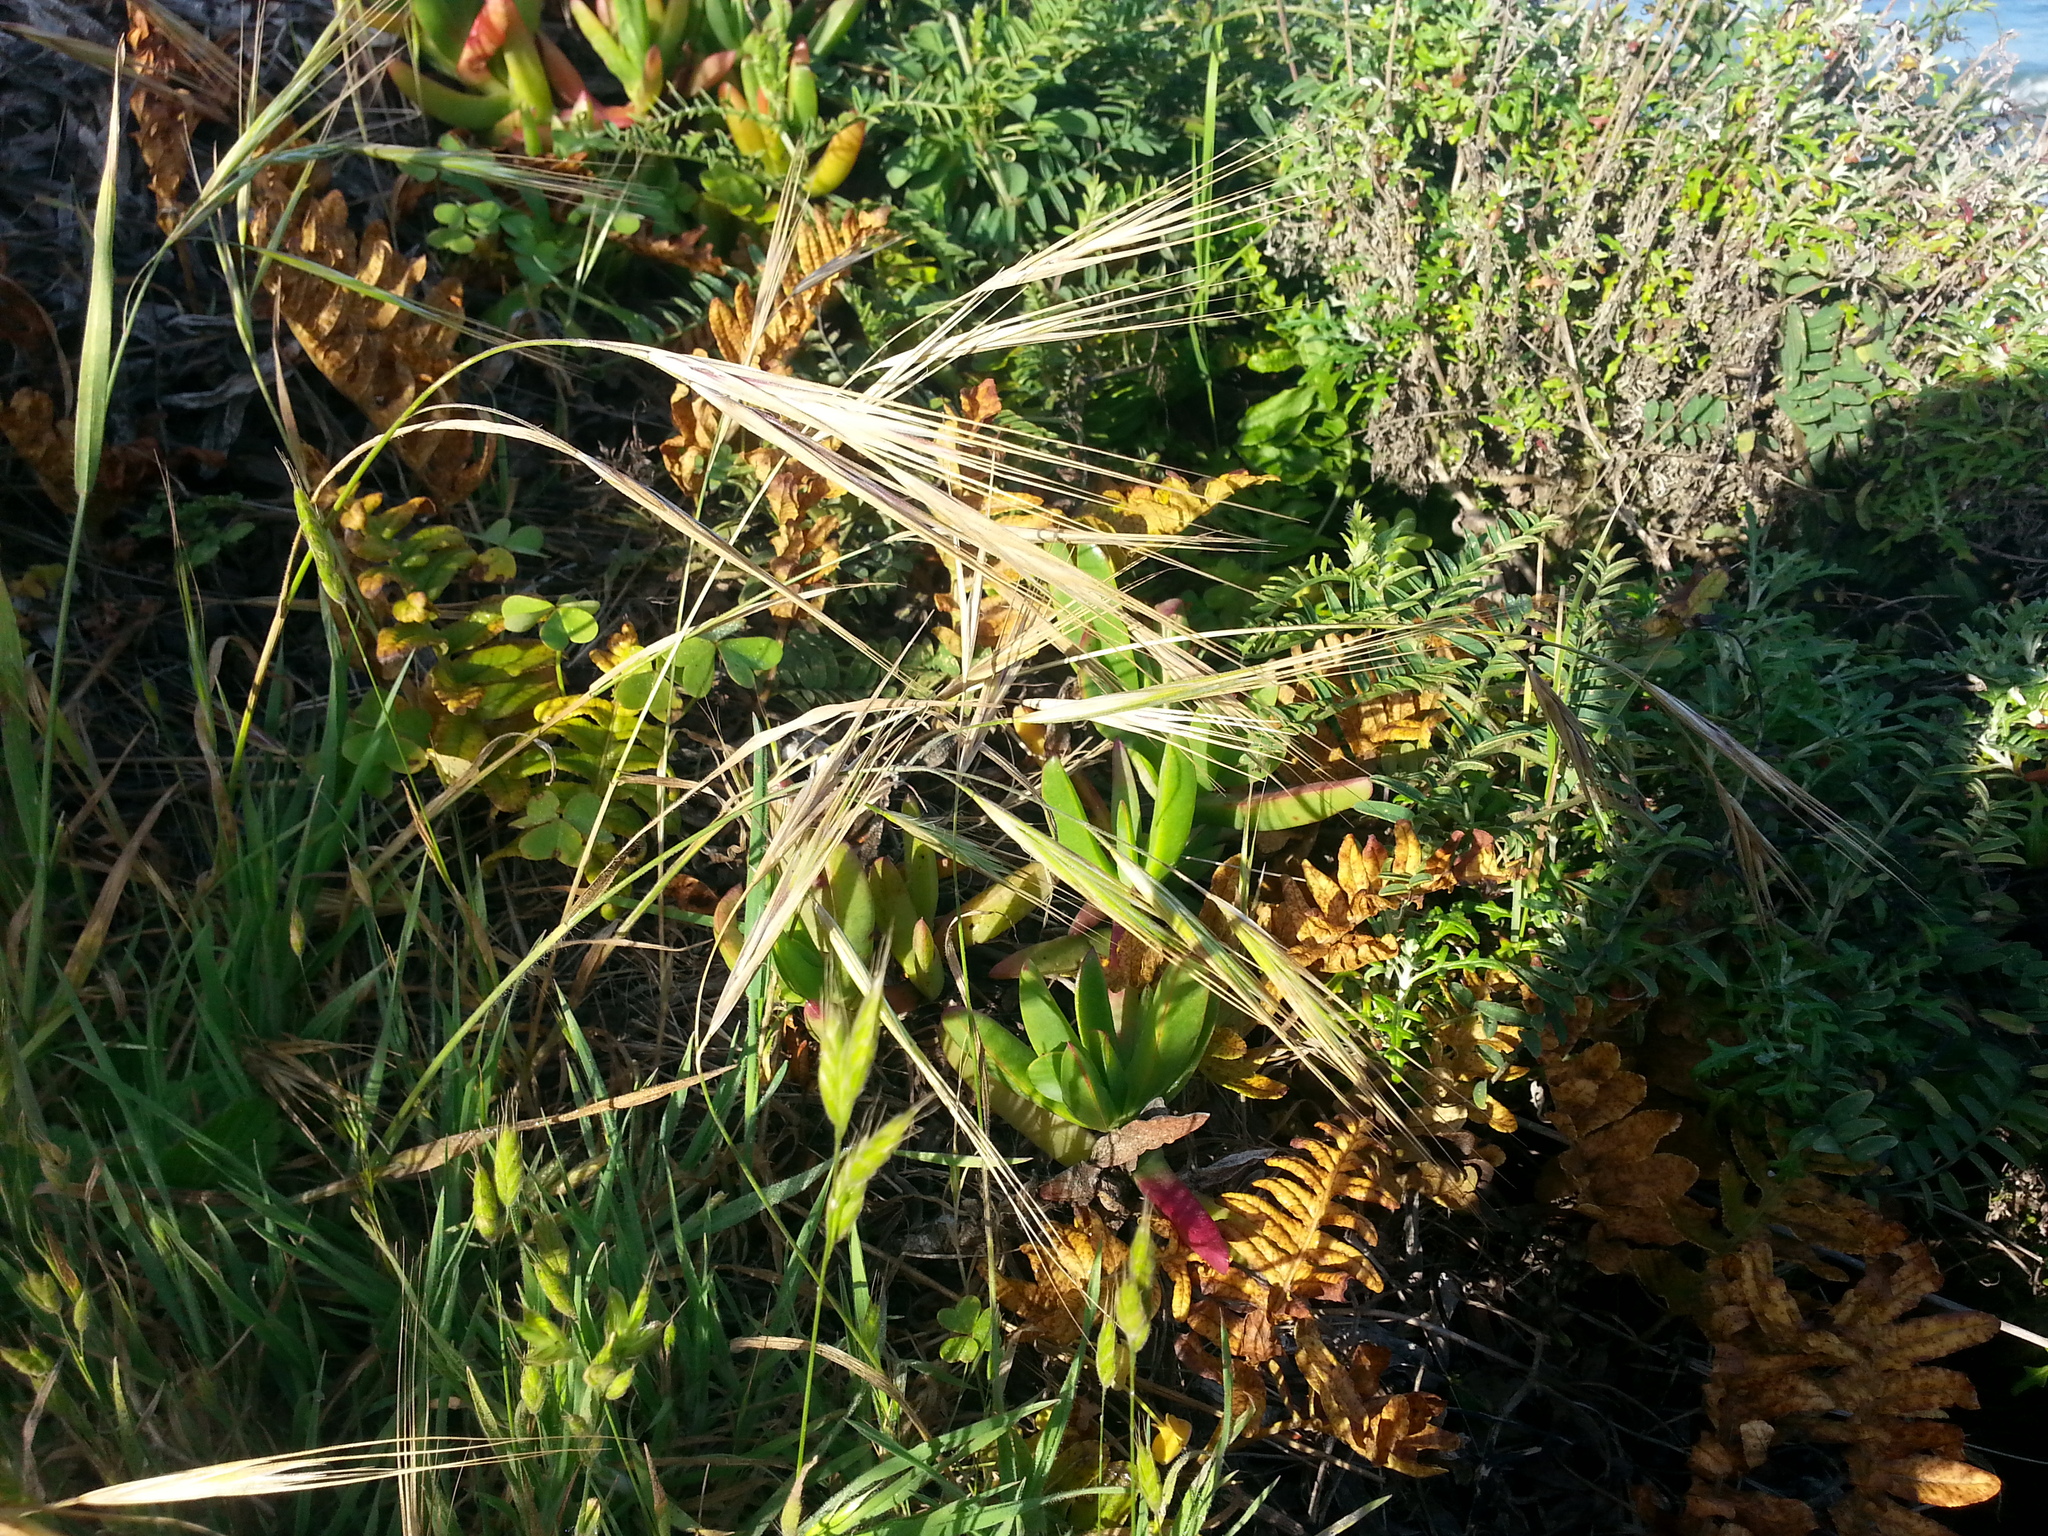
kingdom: Plantae
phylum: Tracheophyta
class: Liliopsida
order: Poales
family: Poaceae
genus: Bromus
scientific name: Bromus diandrus
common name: Ripgut brome
